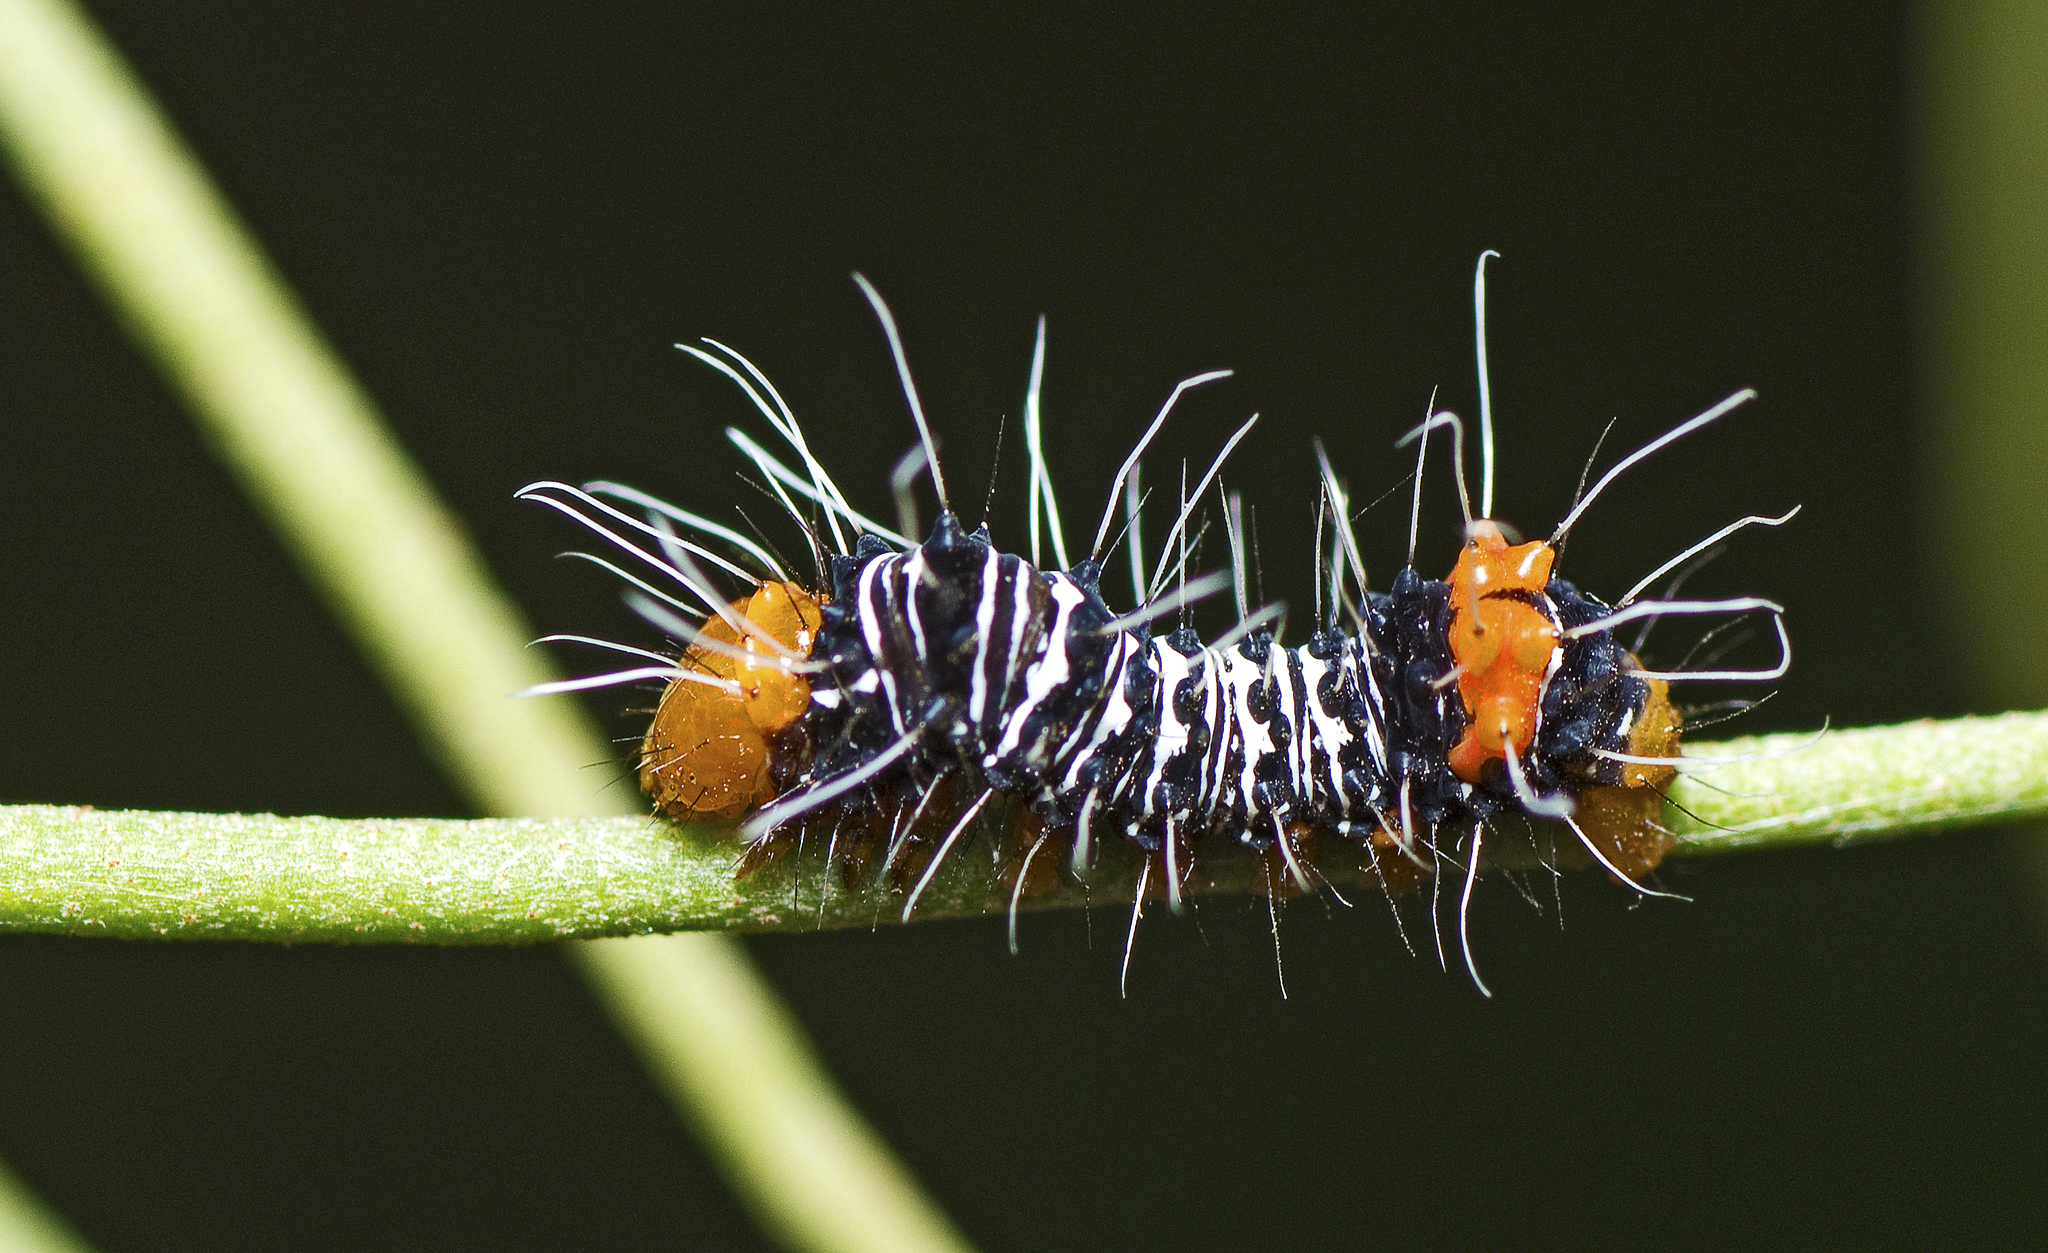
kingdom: Animalia
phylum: Arthropoda
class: Insecta
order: Lepidoptera
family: Noctuidae
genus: Comocrus
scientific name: Comocrus behri
